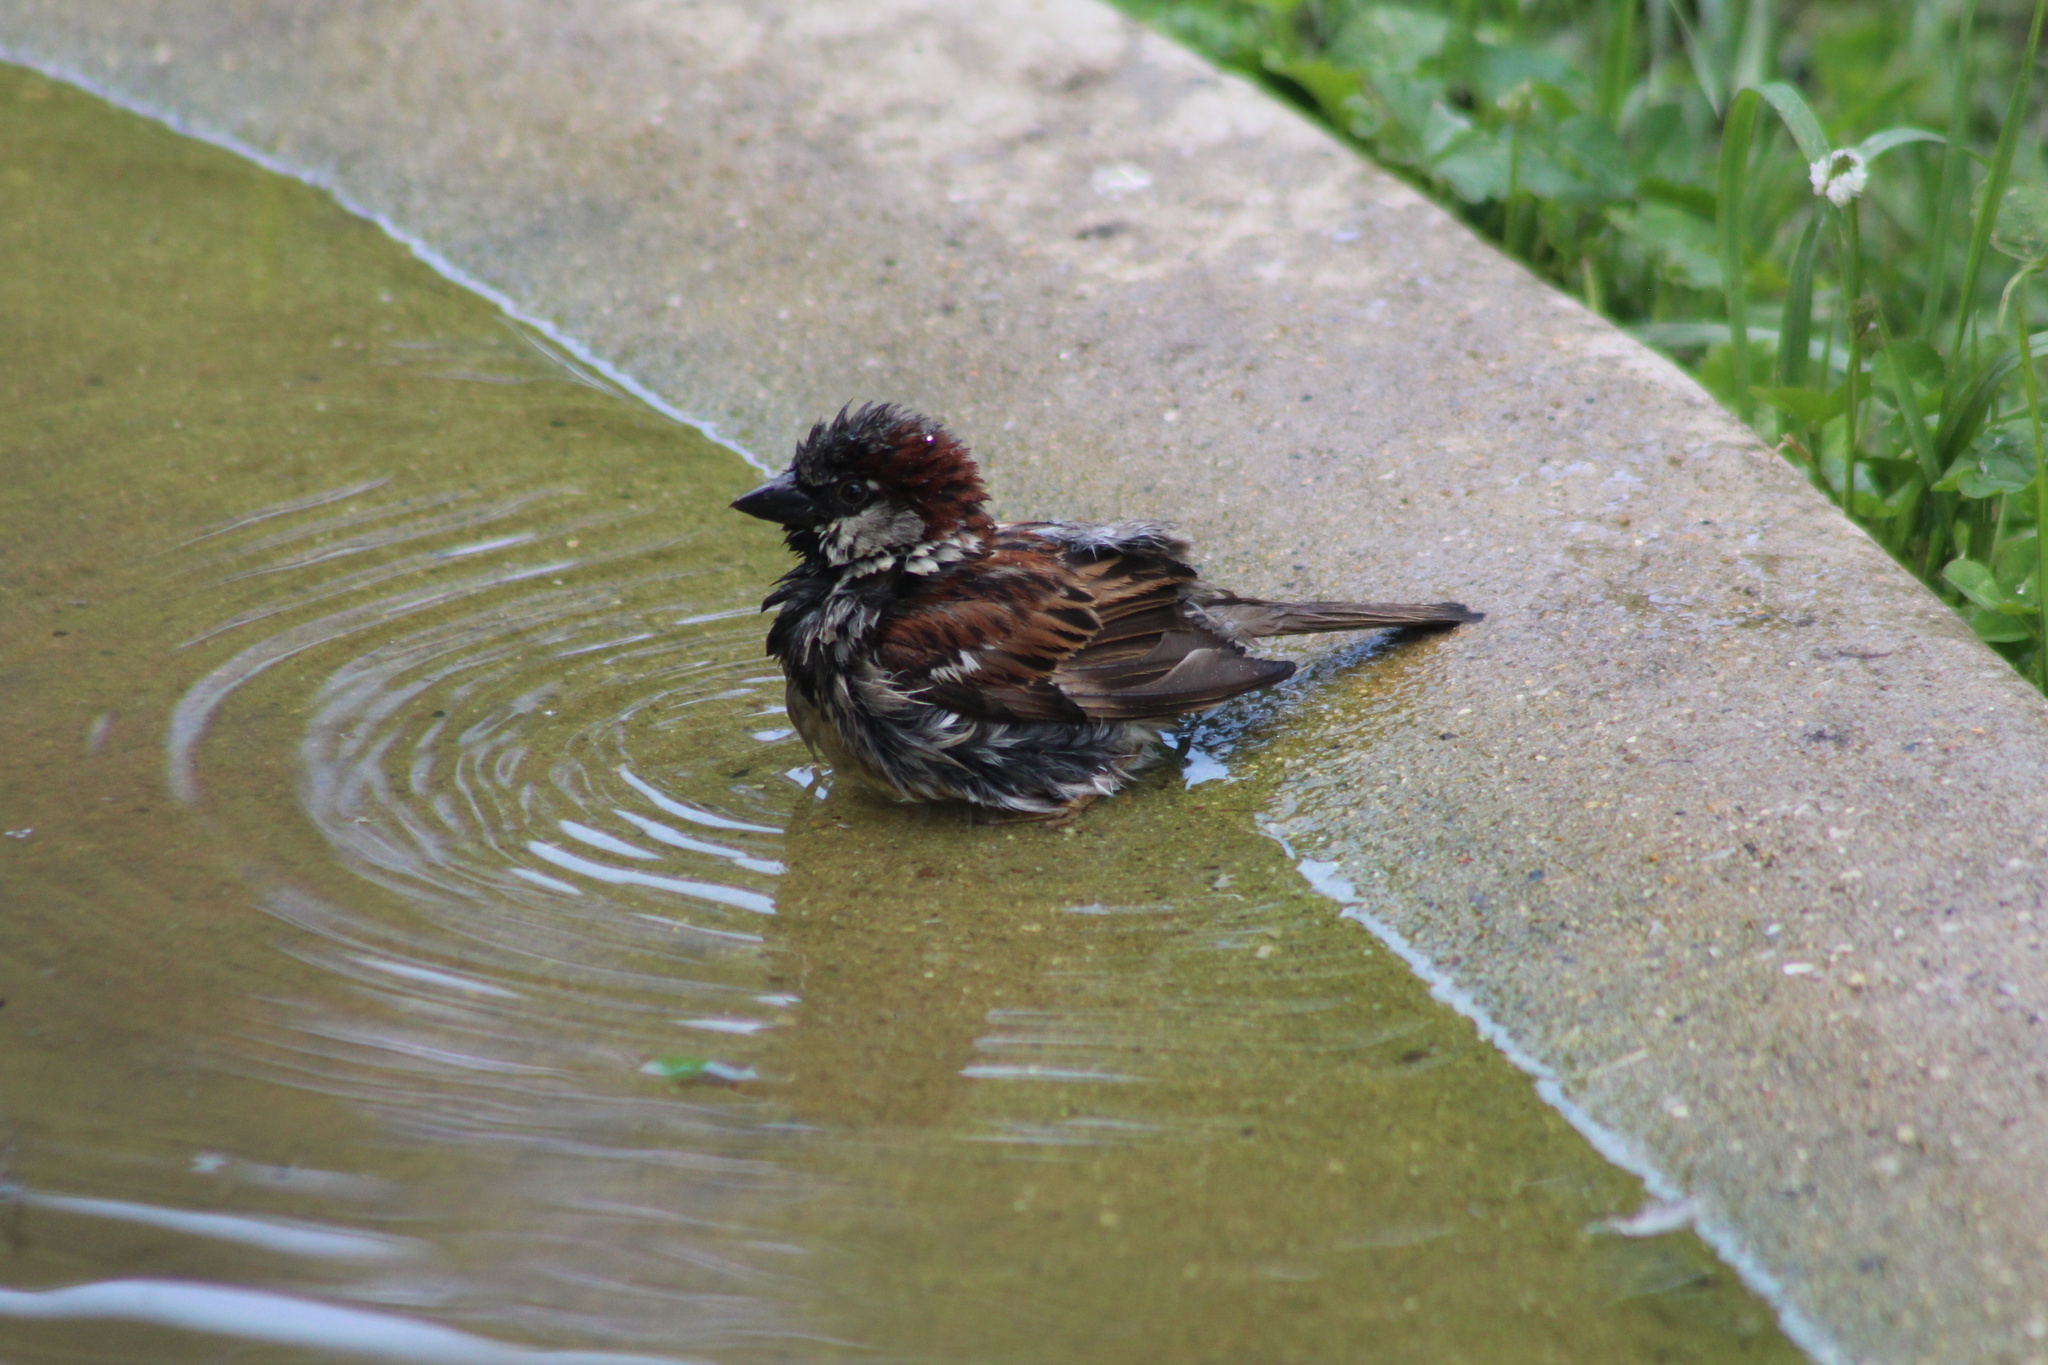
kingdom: Animalia
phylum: Chordata
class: Aves
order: Passeriformes
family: Passeridae
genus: Passer
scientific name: Passer domesticus
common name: House sparrow
